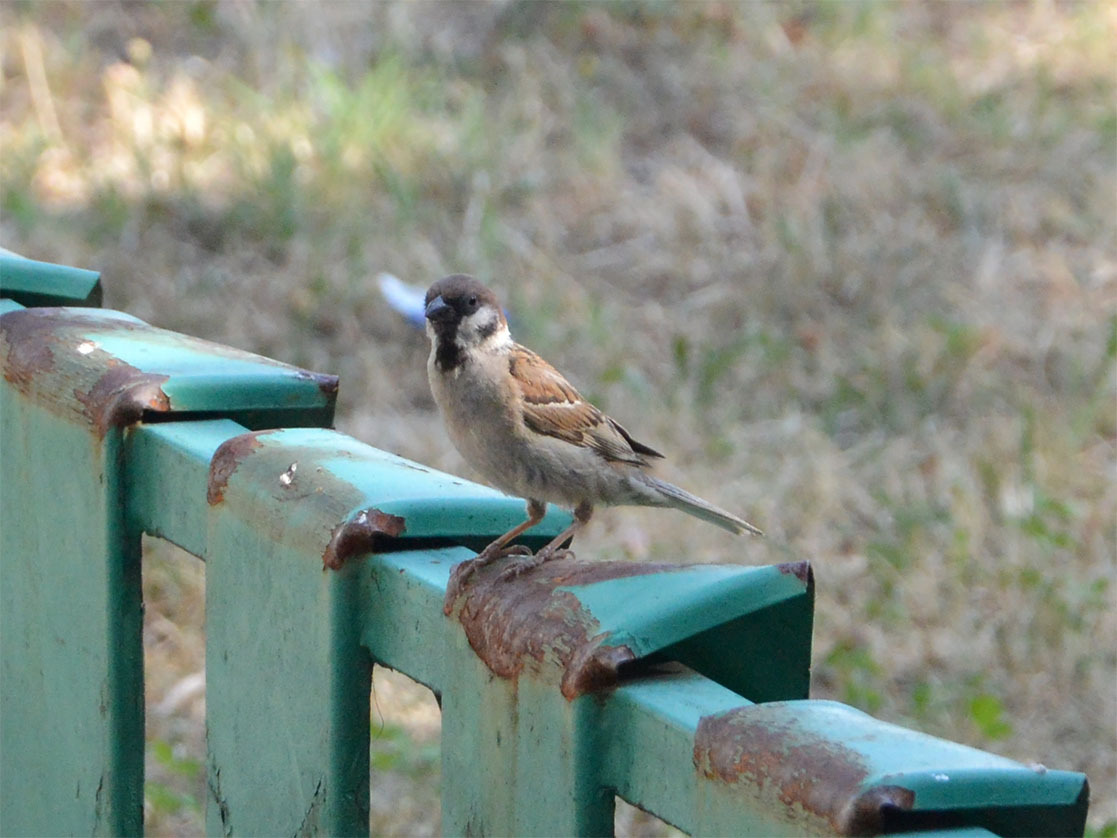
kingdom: Animalia
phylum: Chordata
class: Aves
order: Passeriformes
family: Passeridae
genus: Passer
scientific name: Passer montanus
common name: Eurasian tree sparrow
